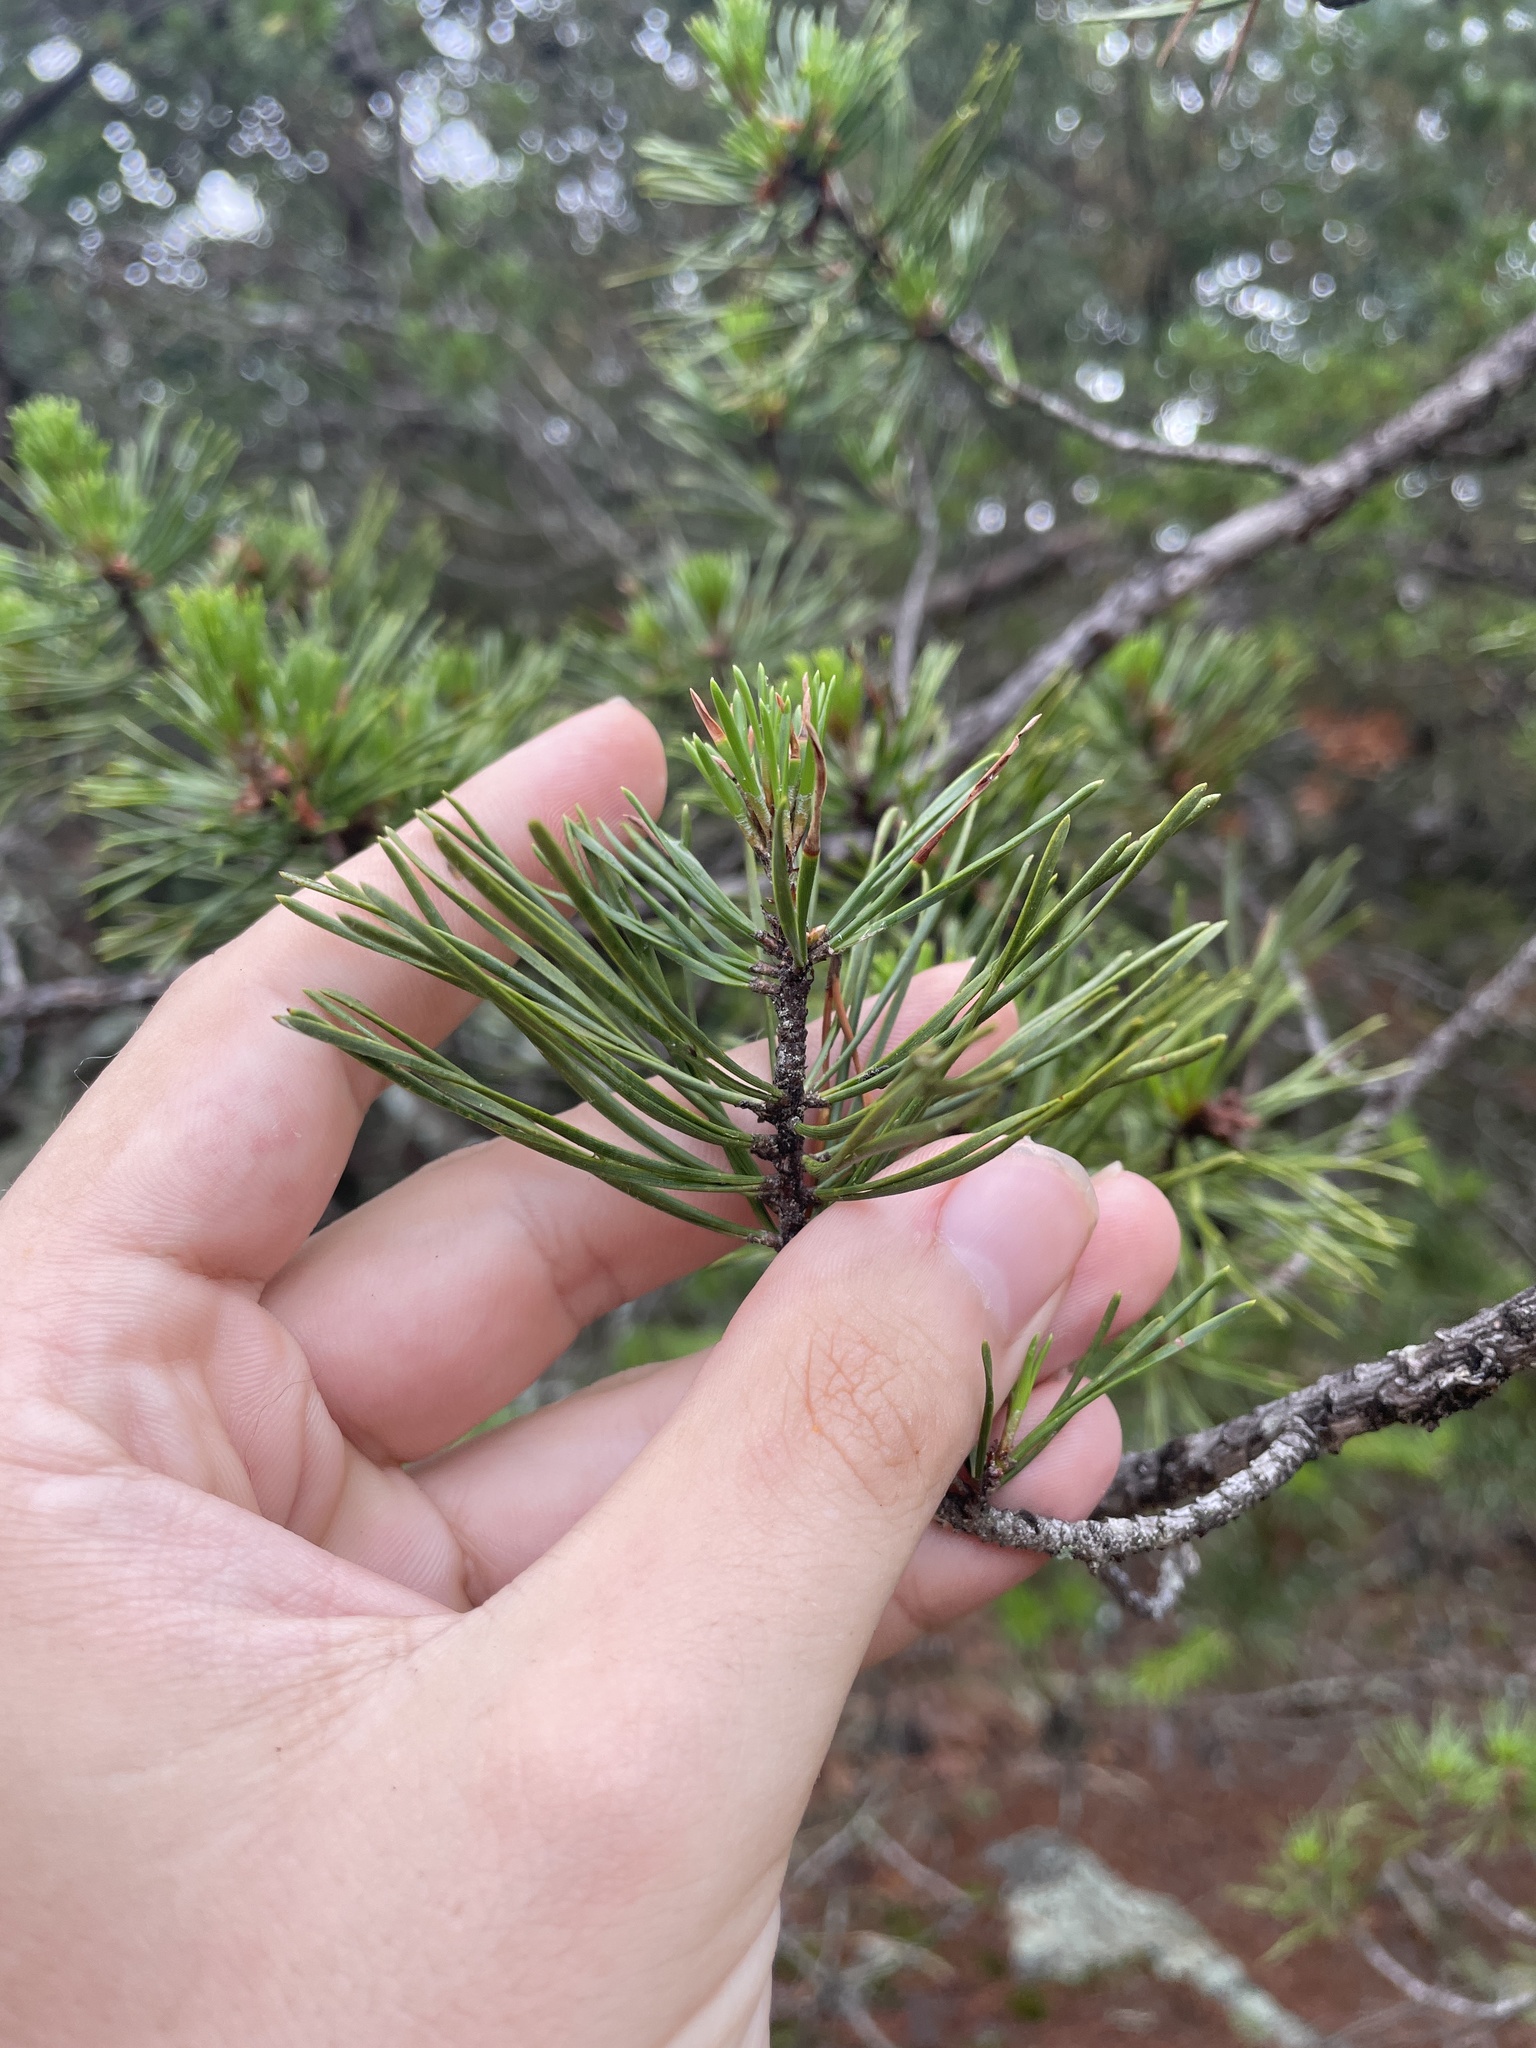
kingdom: Plantae
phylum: Tracheophyta
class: Pinopsida
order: Pinales
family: Pinaceae
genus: Pinus
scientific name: Pinus virginiana
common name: Scrub pine
